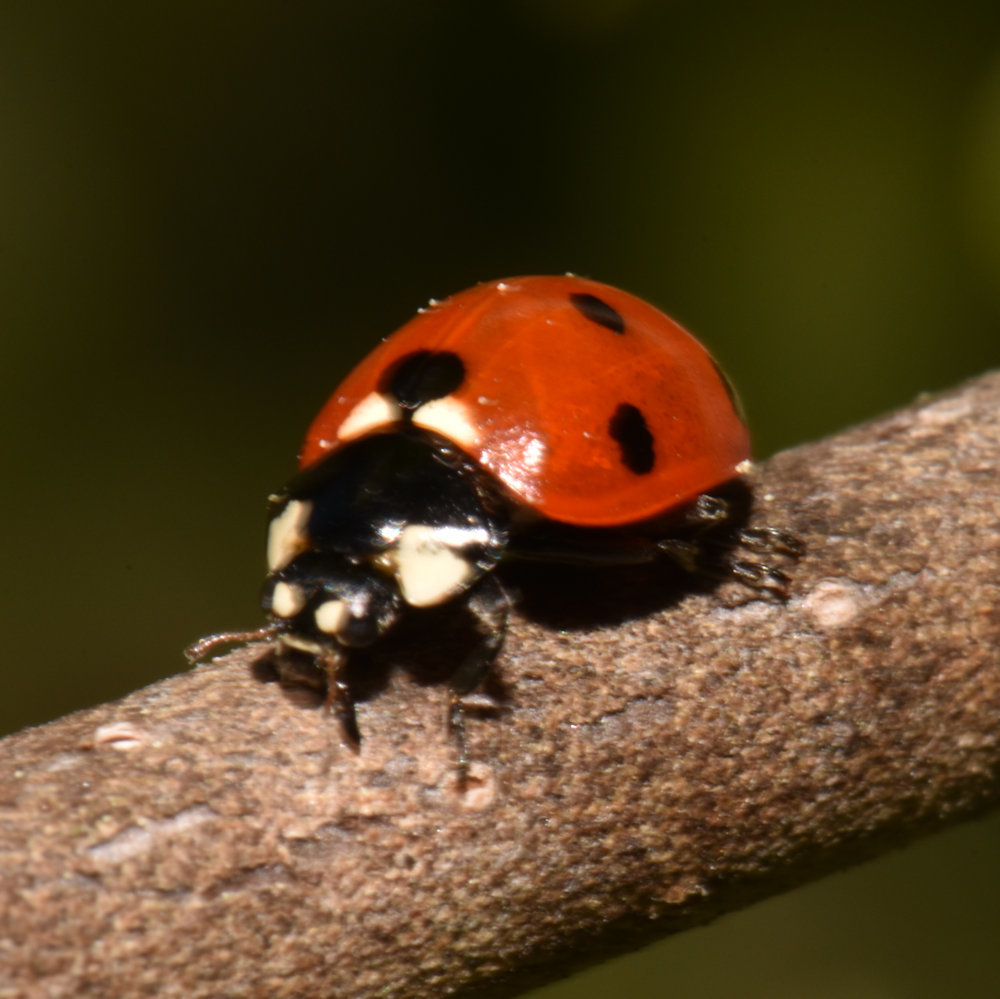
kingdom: Animalia
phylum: Arthropoda
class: Insecta
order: Coleoptera
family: Coccinellidae
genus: Coccinella
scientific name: Coccinella septempunctata
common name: Sevenspotted lady beetle
